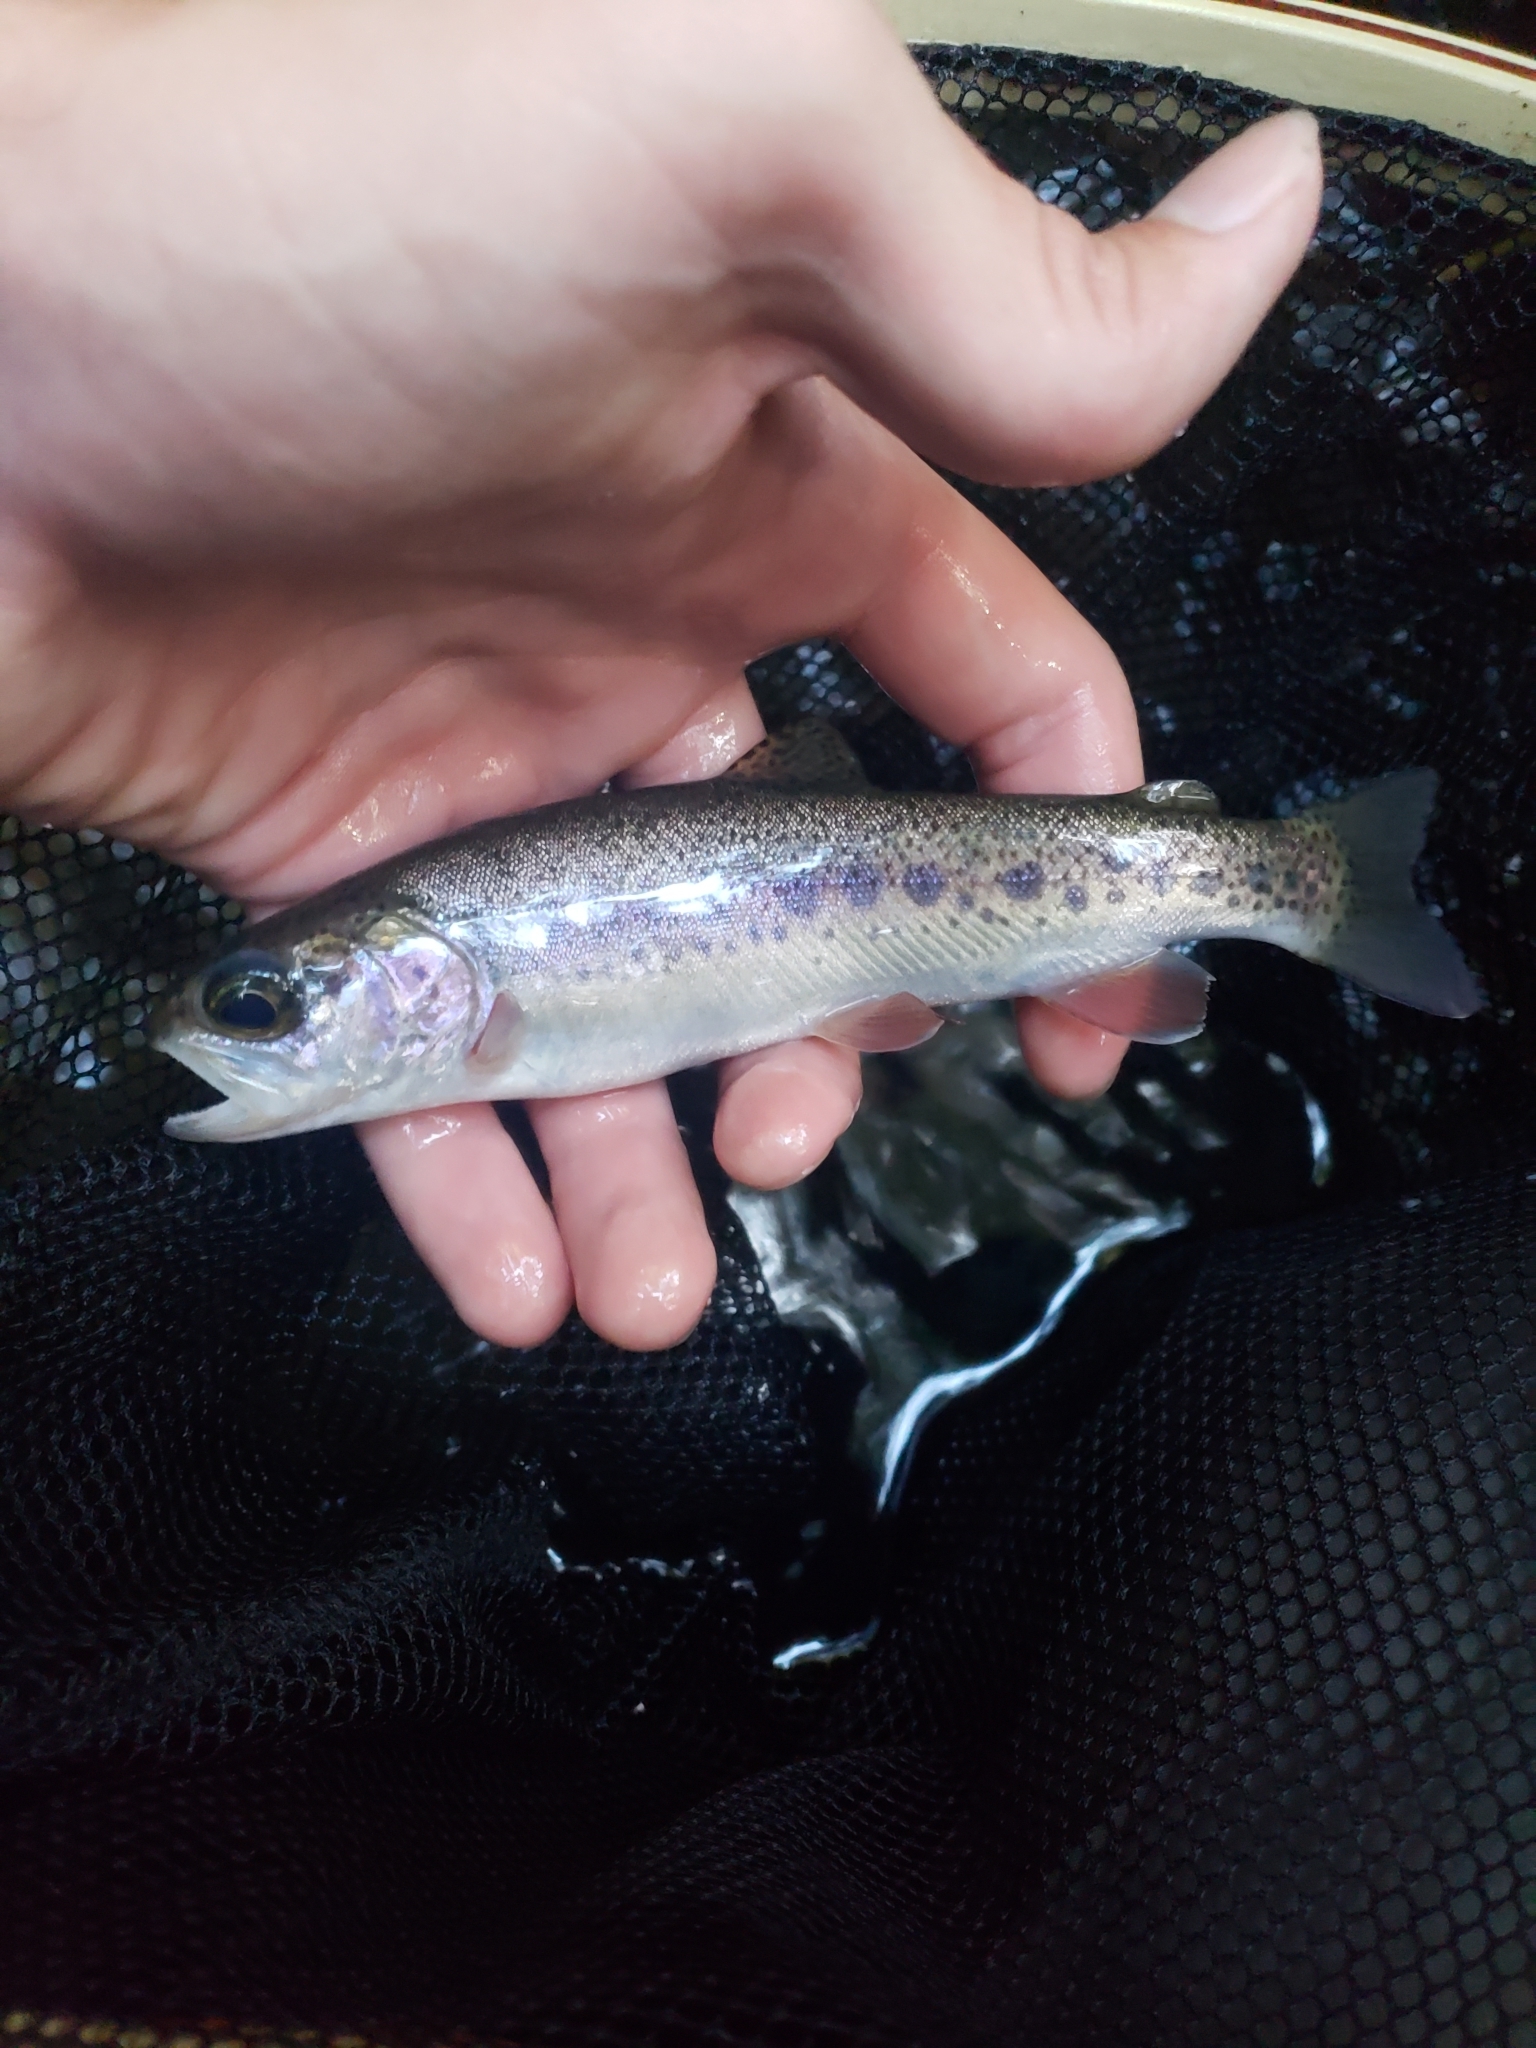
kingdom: Animalia
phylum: Chordata
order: Salmoniformes
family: Salmonidae
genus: Oncorhynchus
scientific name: Oncorhynchus mykiss
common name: Rainbow trout
